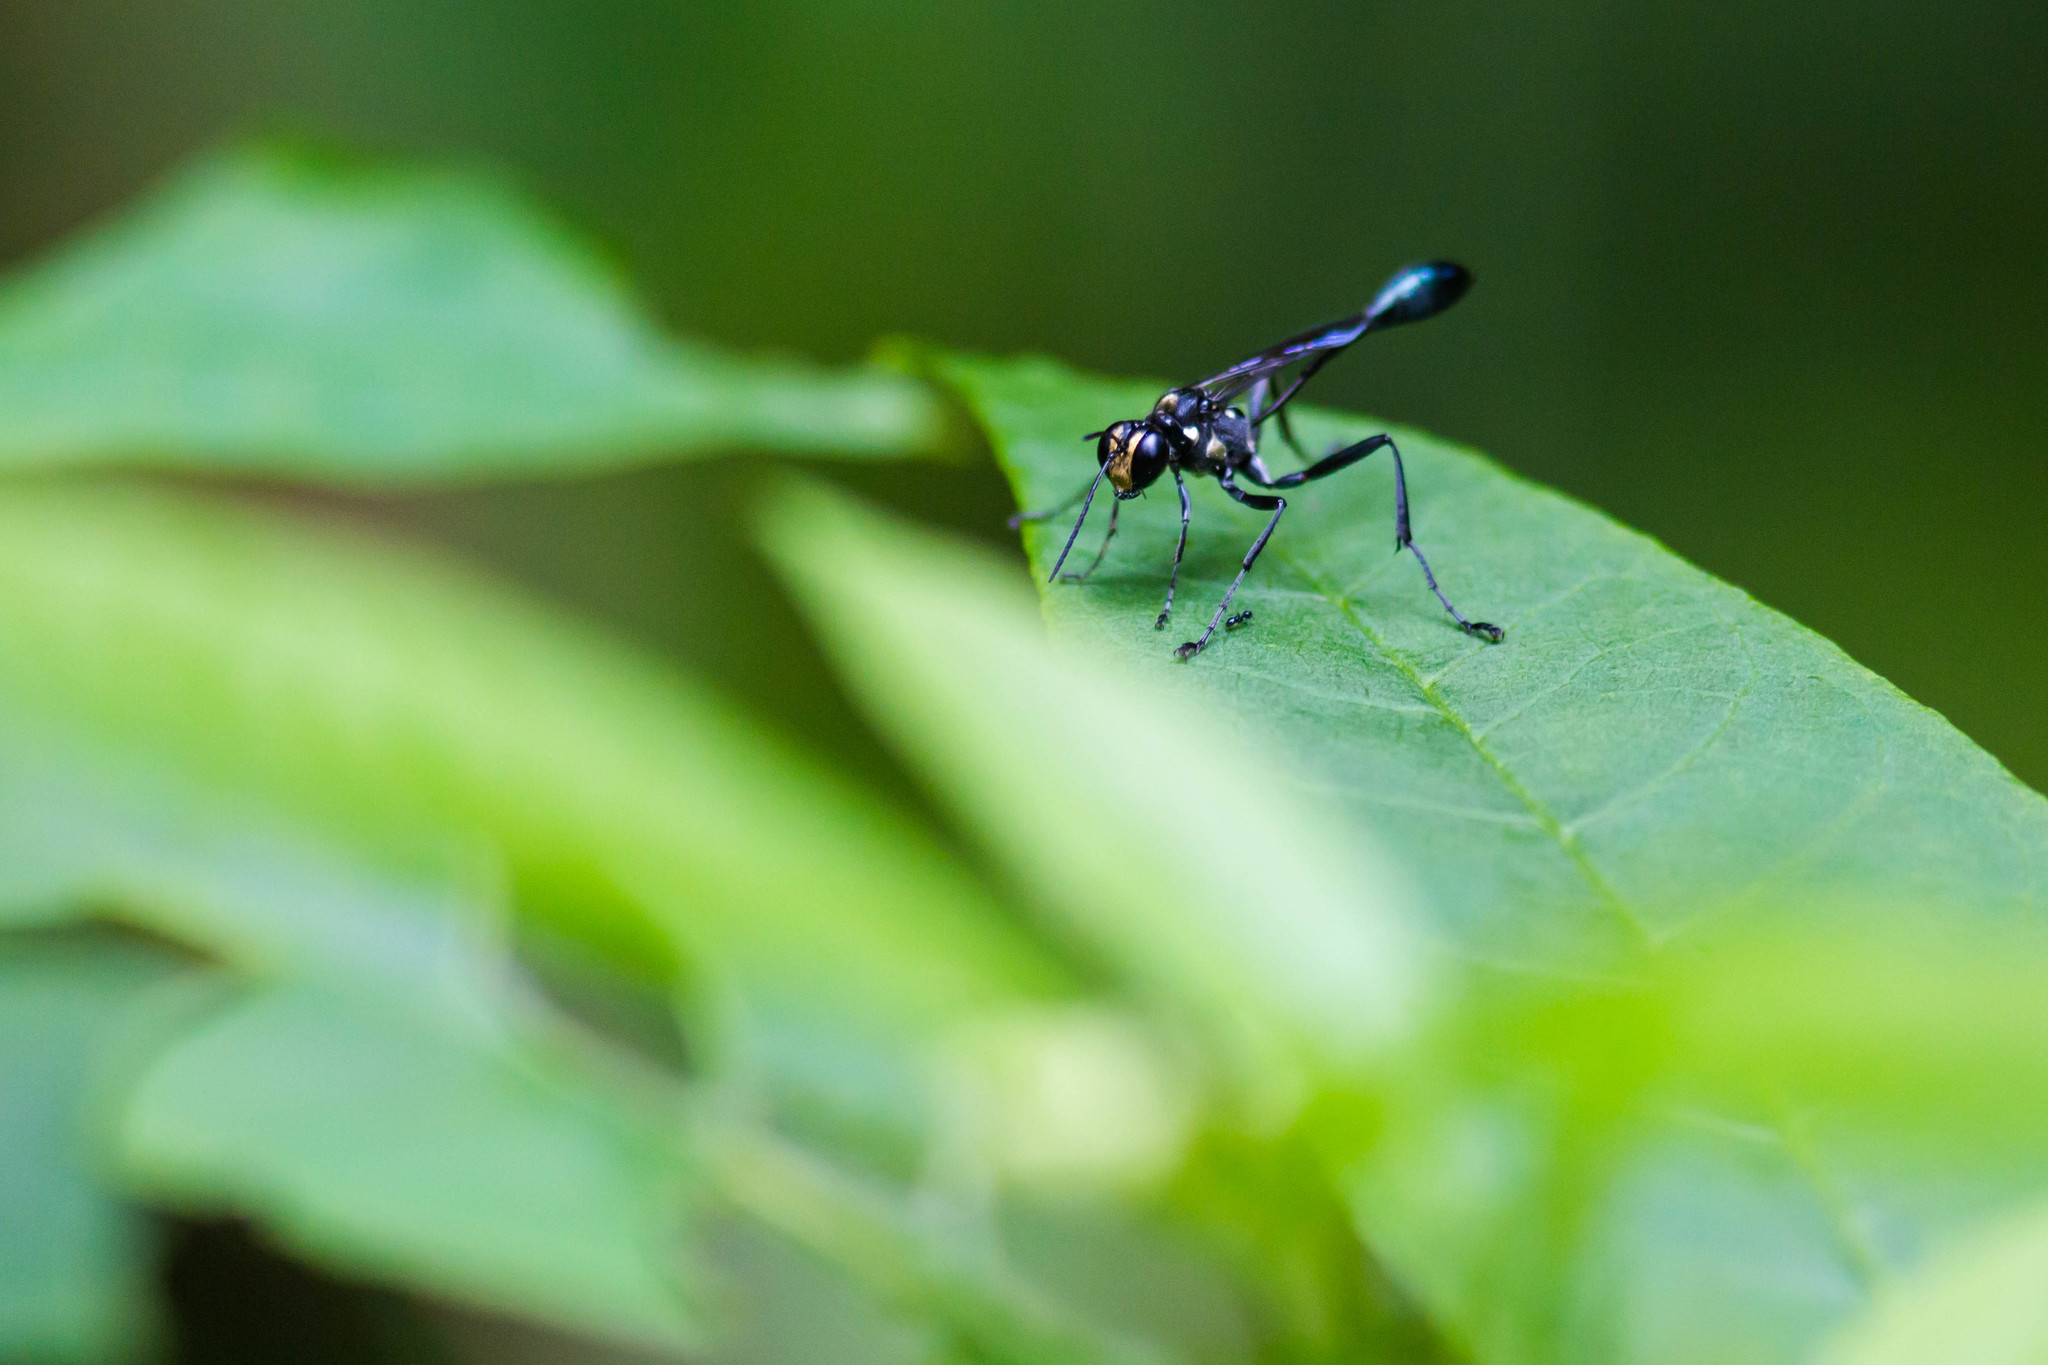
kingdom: Animalia
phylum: Arthropoda
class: Insecta
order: Hymenoptera
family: Sphecidae
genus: Eremnophila
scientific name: Eremnophila aureonotata
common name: Gold-marked thread-waisted wasp
